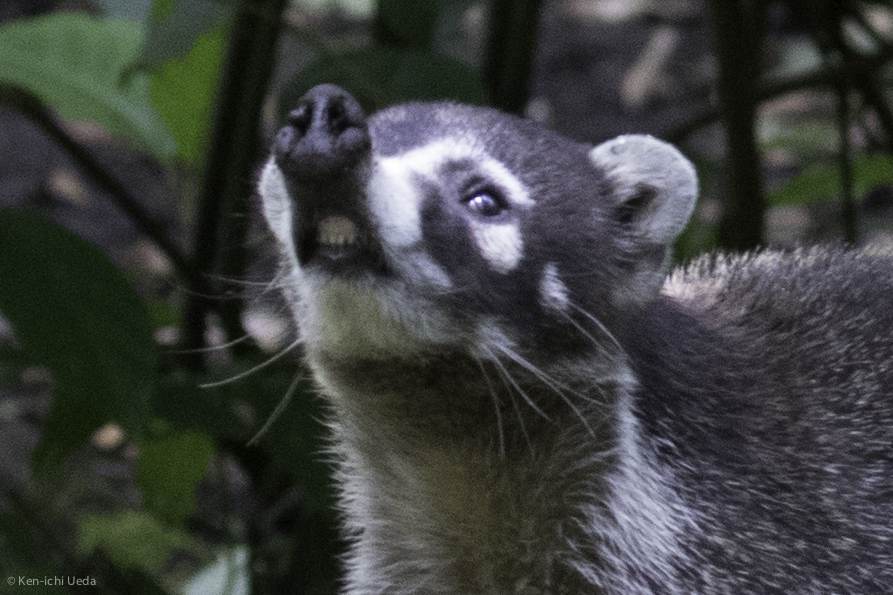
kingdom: Animalia
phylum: Chordata
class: Mammalia
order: Carnivora
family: Procyonidae
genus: Nasua
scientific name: Nasua narica
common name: White-nosed coati
